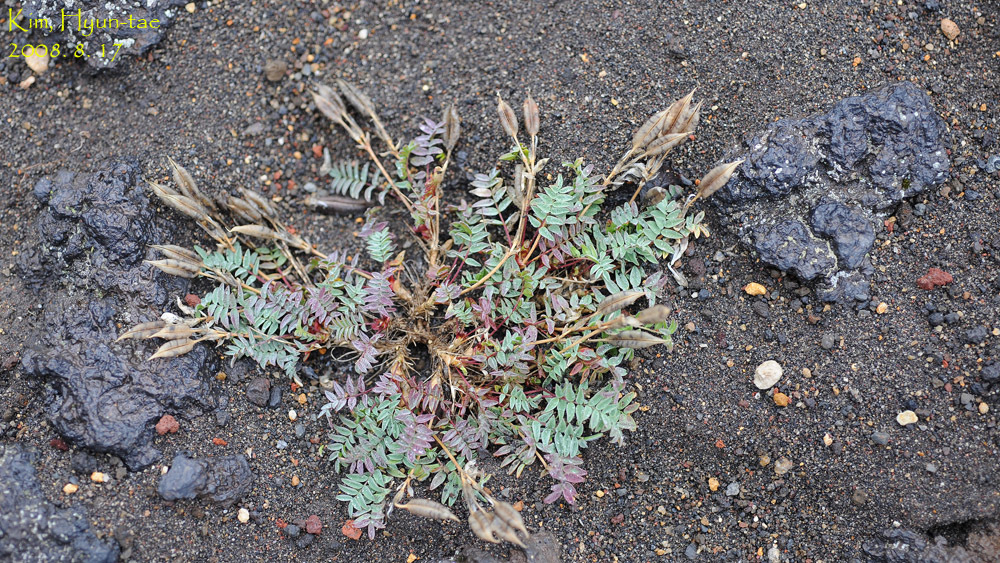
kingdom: Plantae
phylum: Tracheophyta
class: Magnoliopsida
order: Fabales
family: Fabaceae
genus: Oxytropis
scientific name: Oxytropis revoluta
